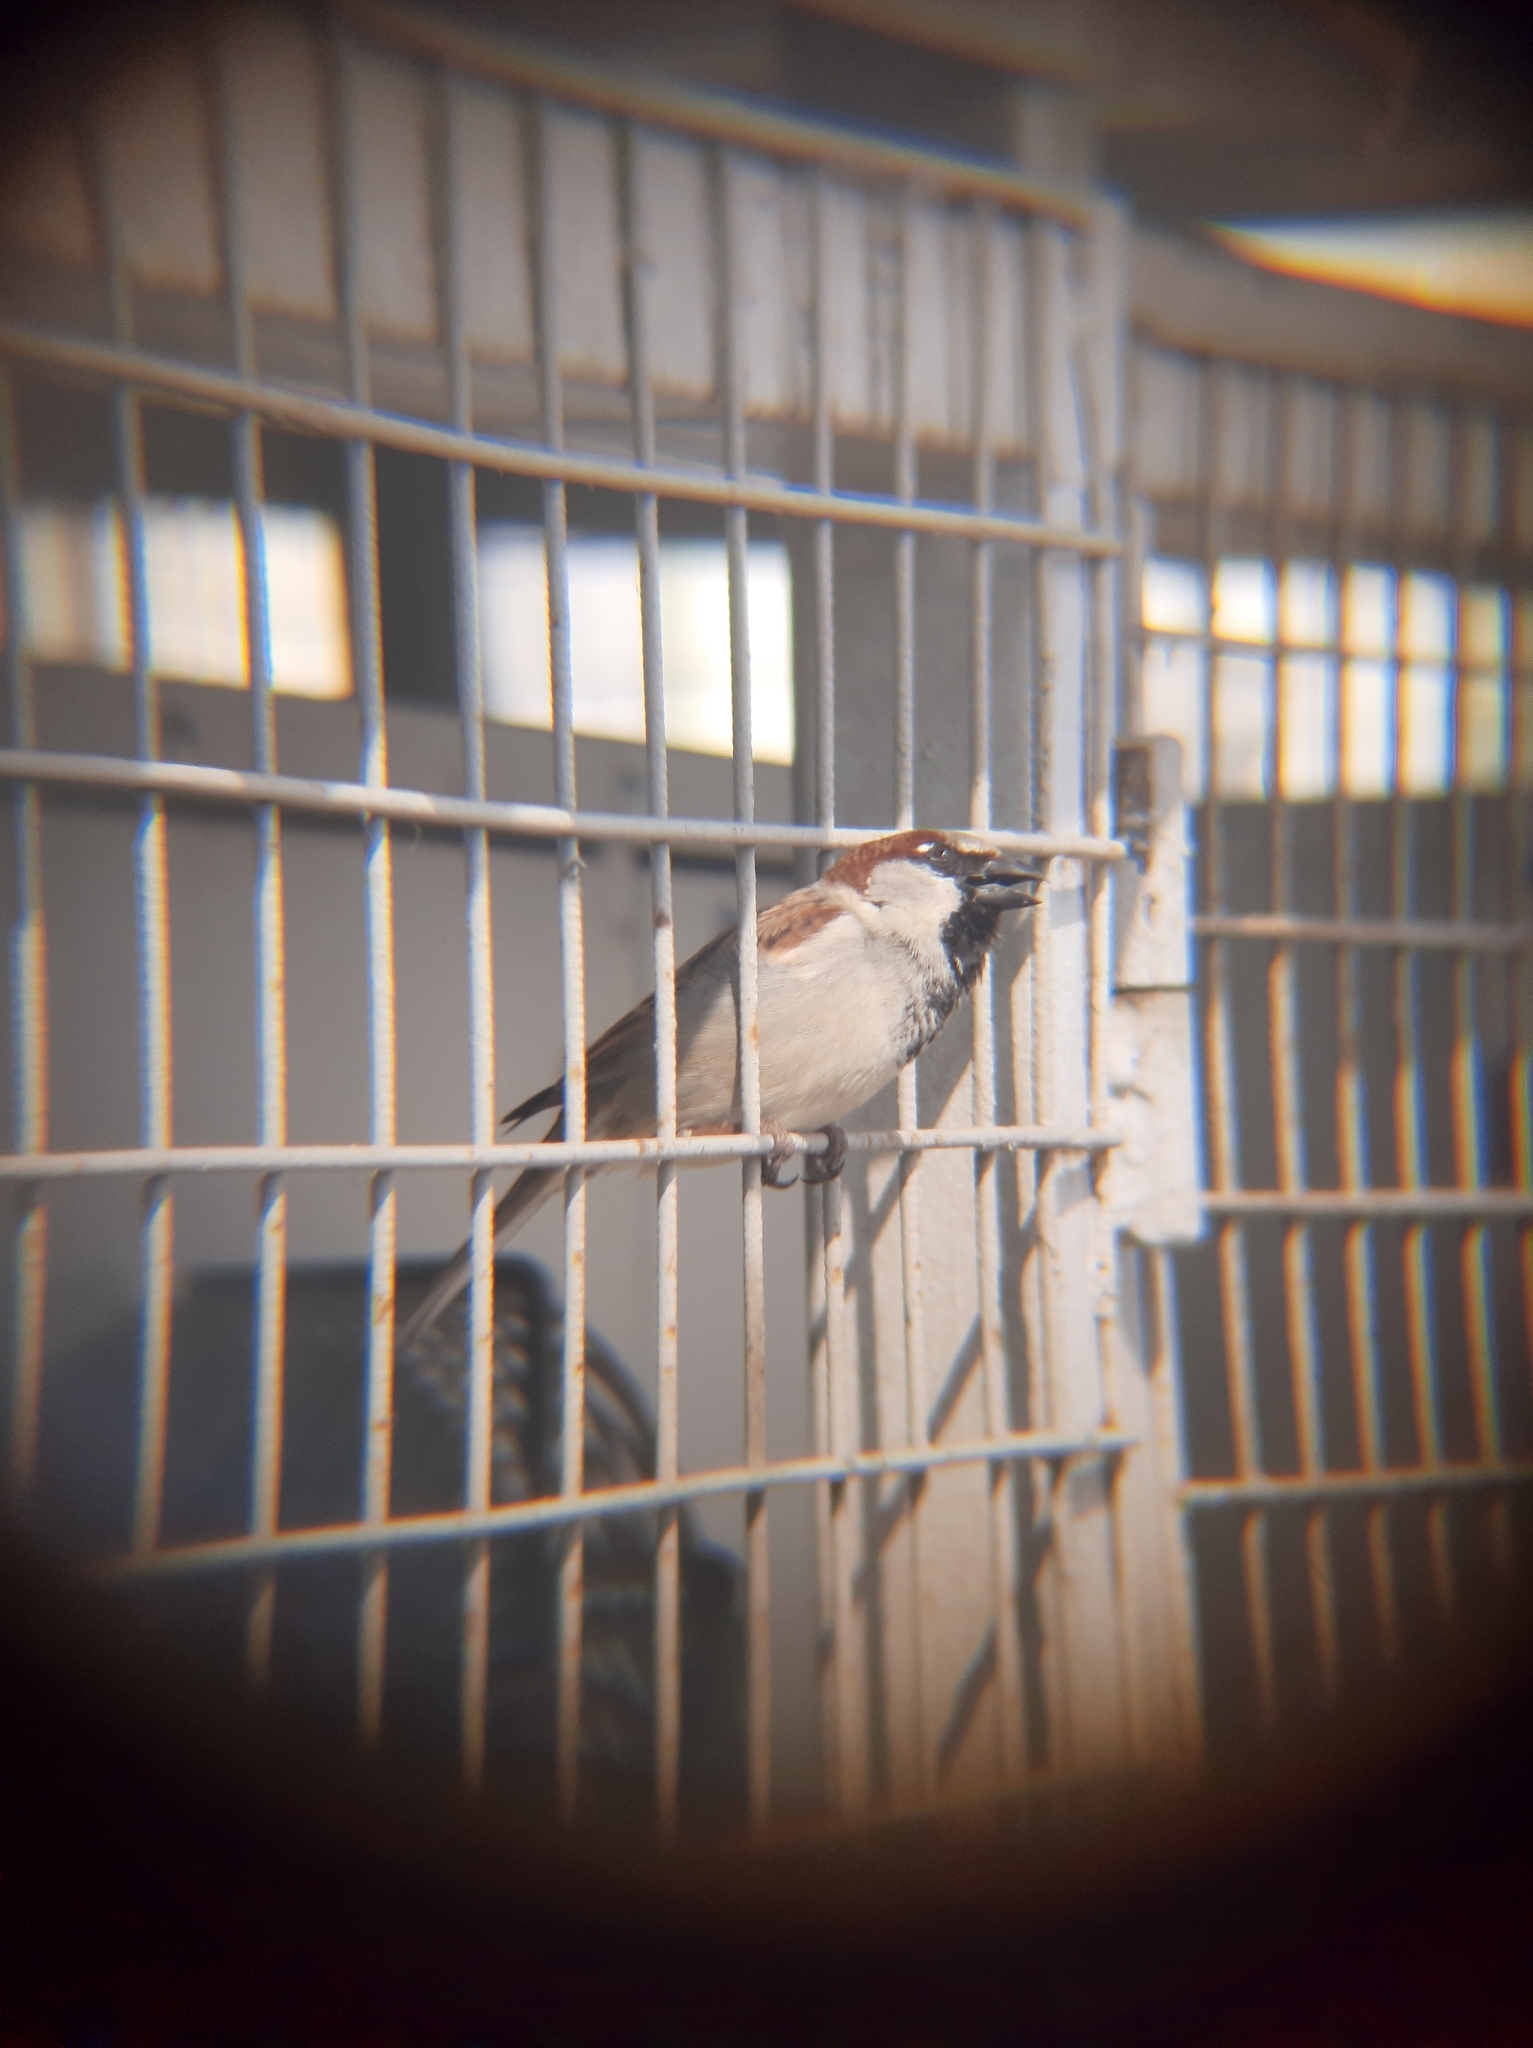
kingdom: Animalia
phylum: Chordata
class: Aves
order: Passeriformes
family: Passeridae
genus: Passer
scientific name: Passer domesticus
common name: House sparrow
